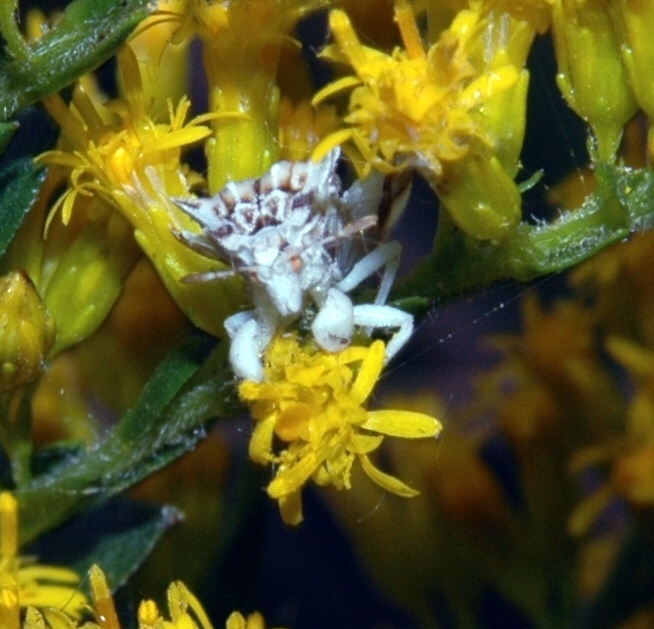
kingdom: Animalia
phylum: Arthropoda
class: Insecta
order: Hemiptera
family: Reduviidae
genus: Phymata
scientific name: Phymata fasciata
